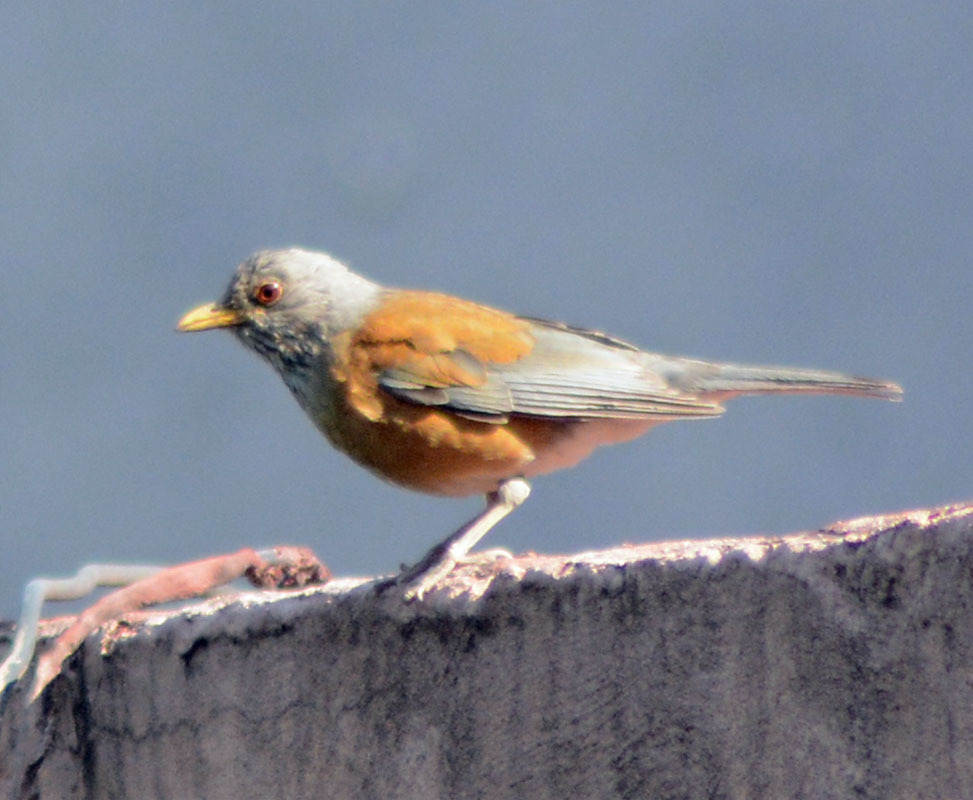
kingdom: Animalia
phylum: Chordata
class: Aves
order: Passeriformes
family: Turdidae
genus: Turdus
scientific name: Turdus rufopalliatus
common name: Rufous-backed robin
